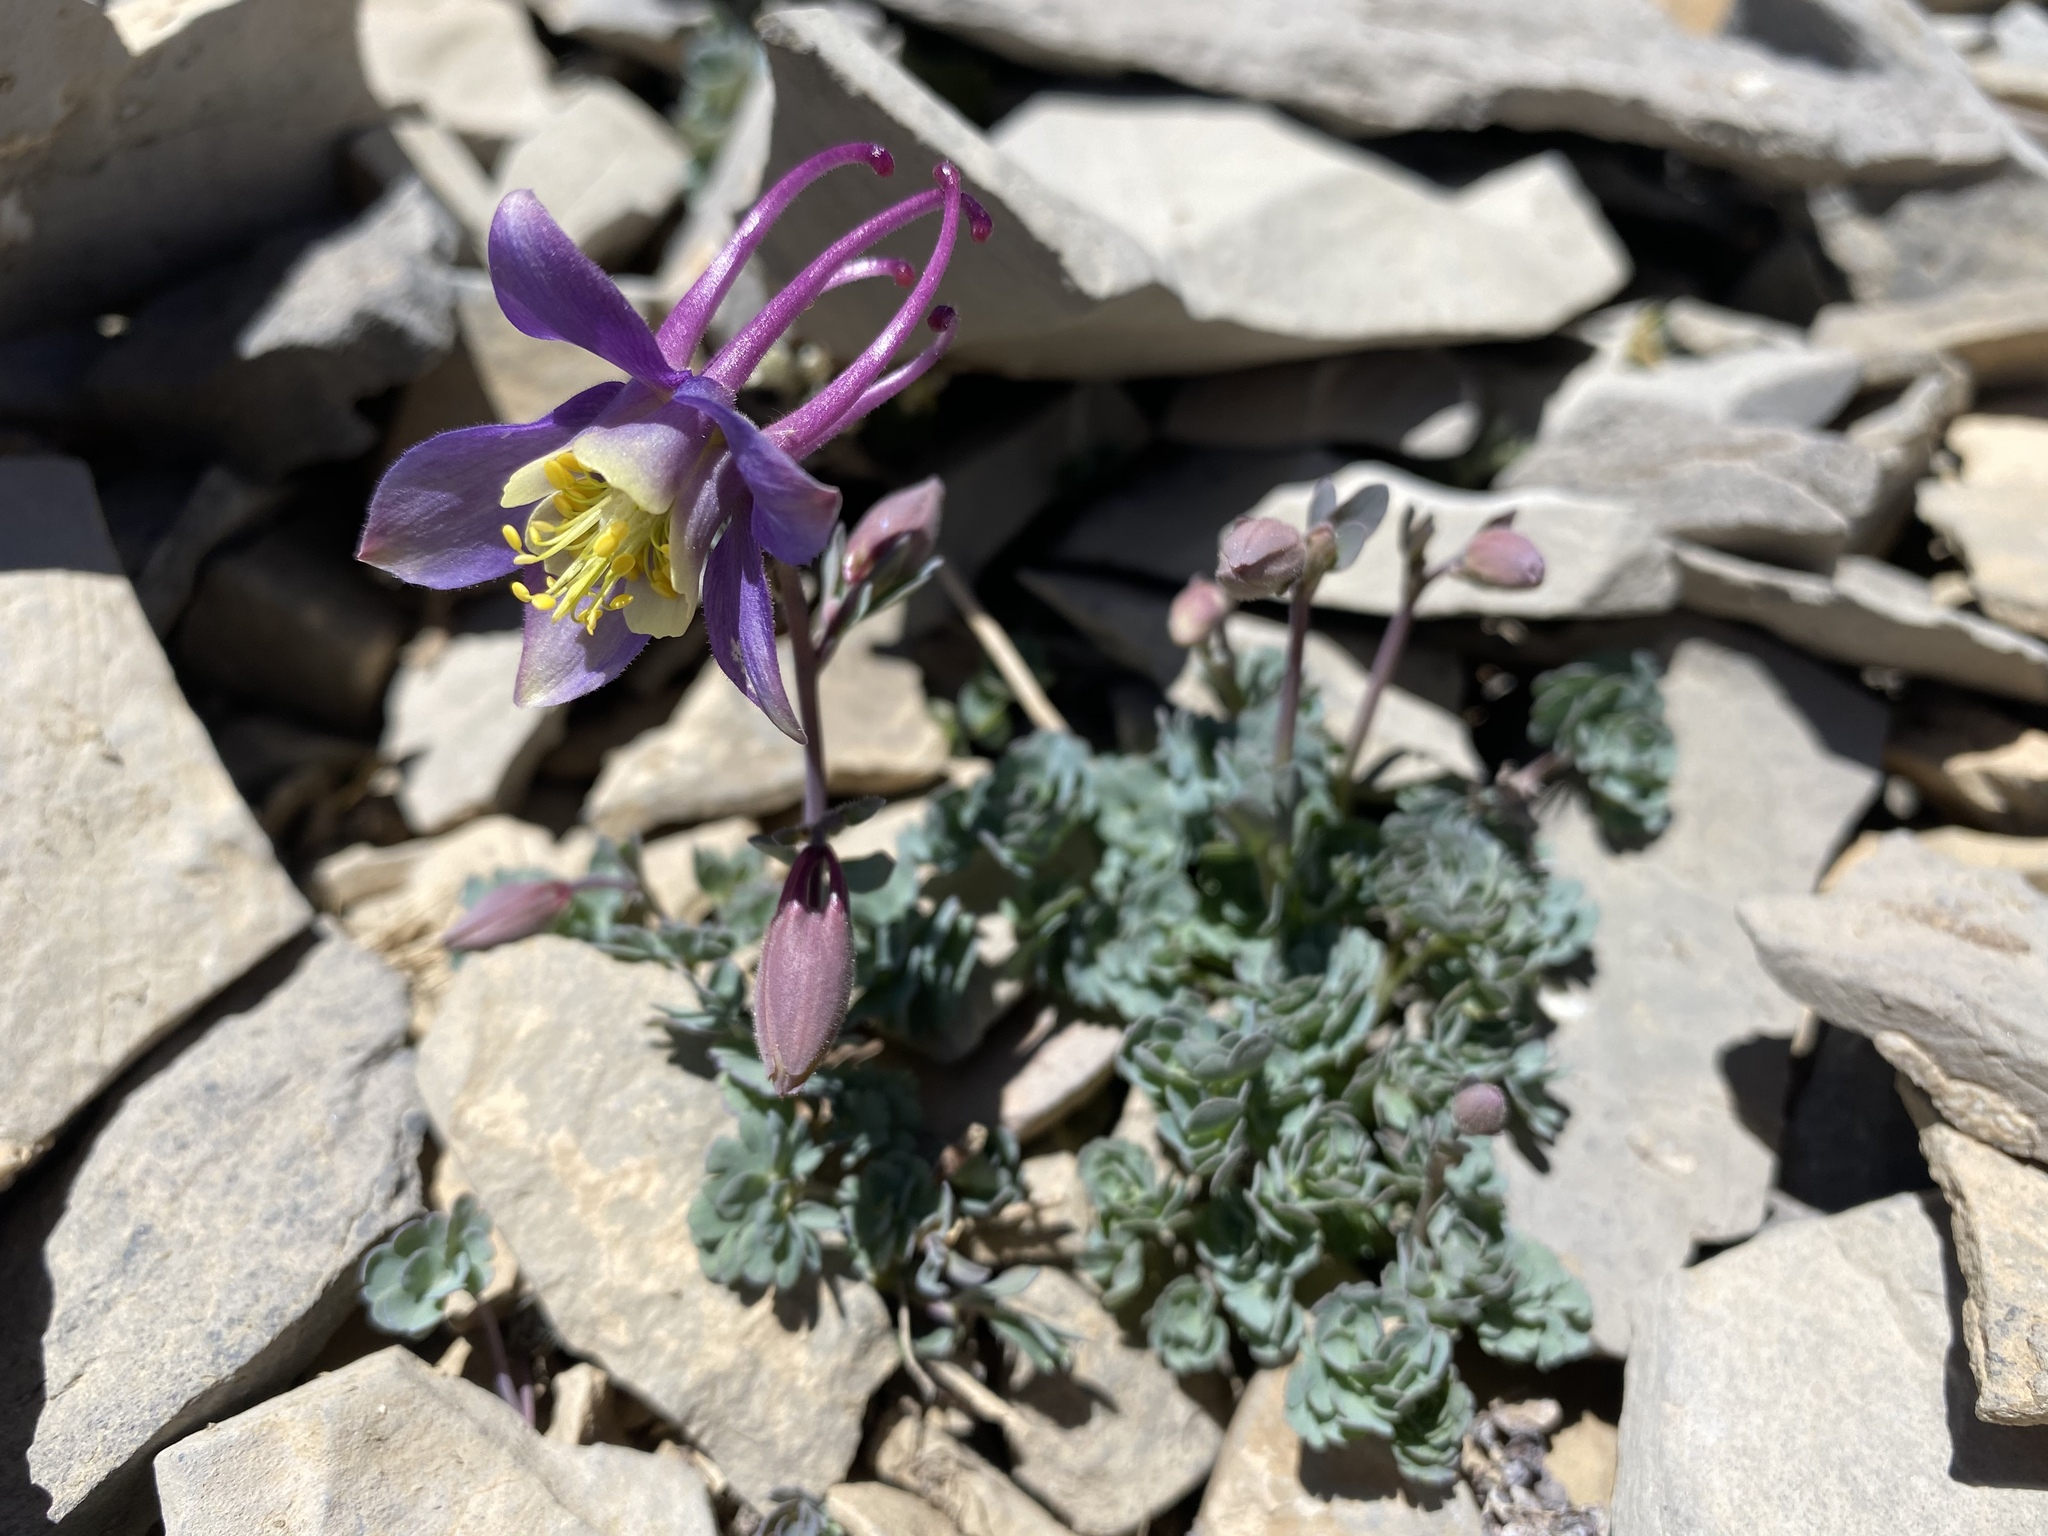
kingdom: Plantae
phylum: Tracheophyta
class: Magnoliopsida
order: Ranunculales
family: Ranunculaceae
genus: Aquilegia
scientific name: Aquilegia scopulorum
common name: Rock columbine
